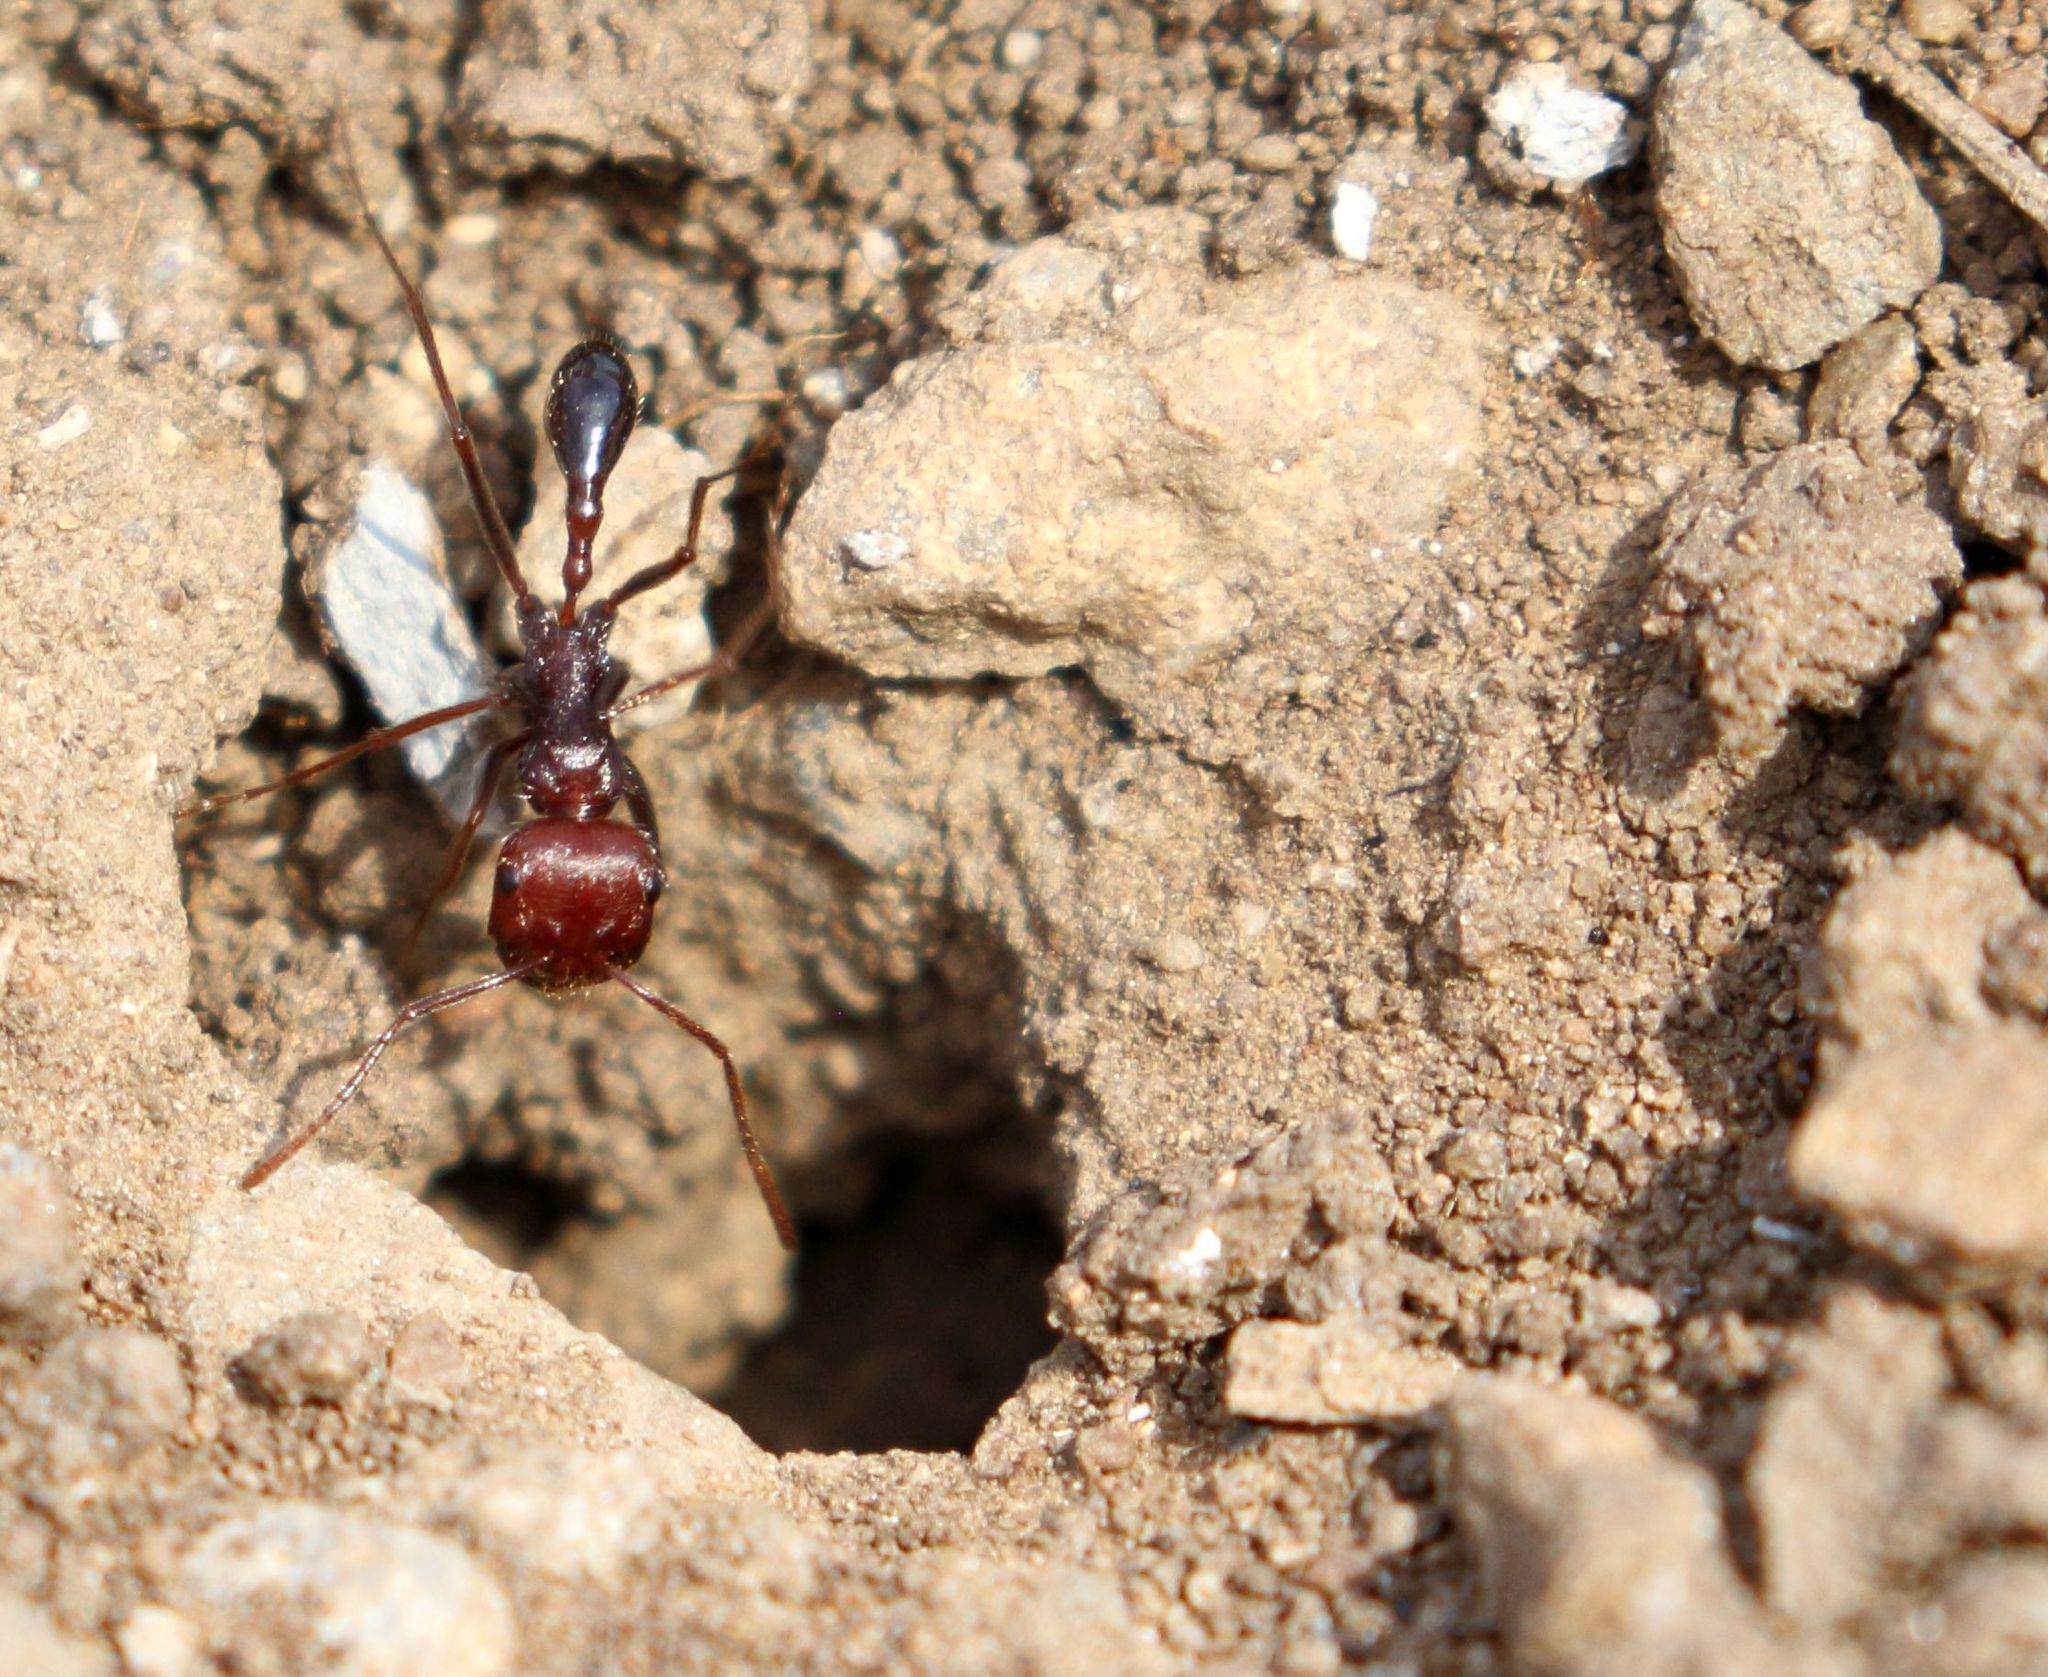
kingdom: Animalia
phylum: Arthropoda
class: Insecta
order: Hymenoptera
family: Formicidae
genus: Ocymyrmex
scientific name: Ocymyrmex fortior
